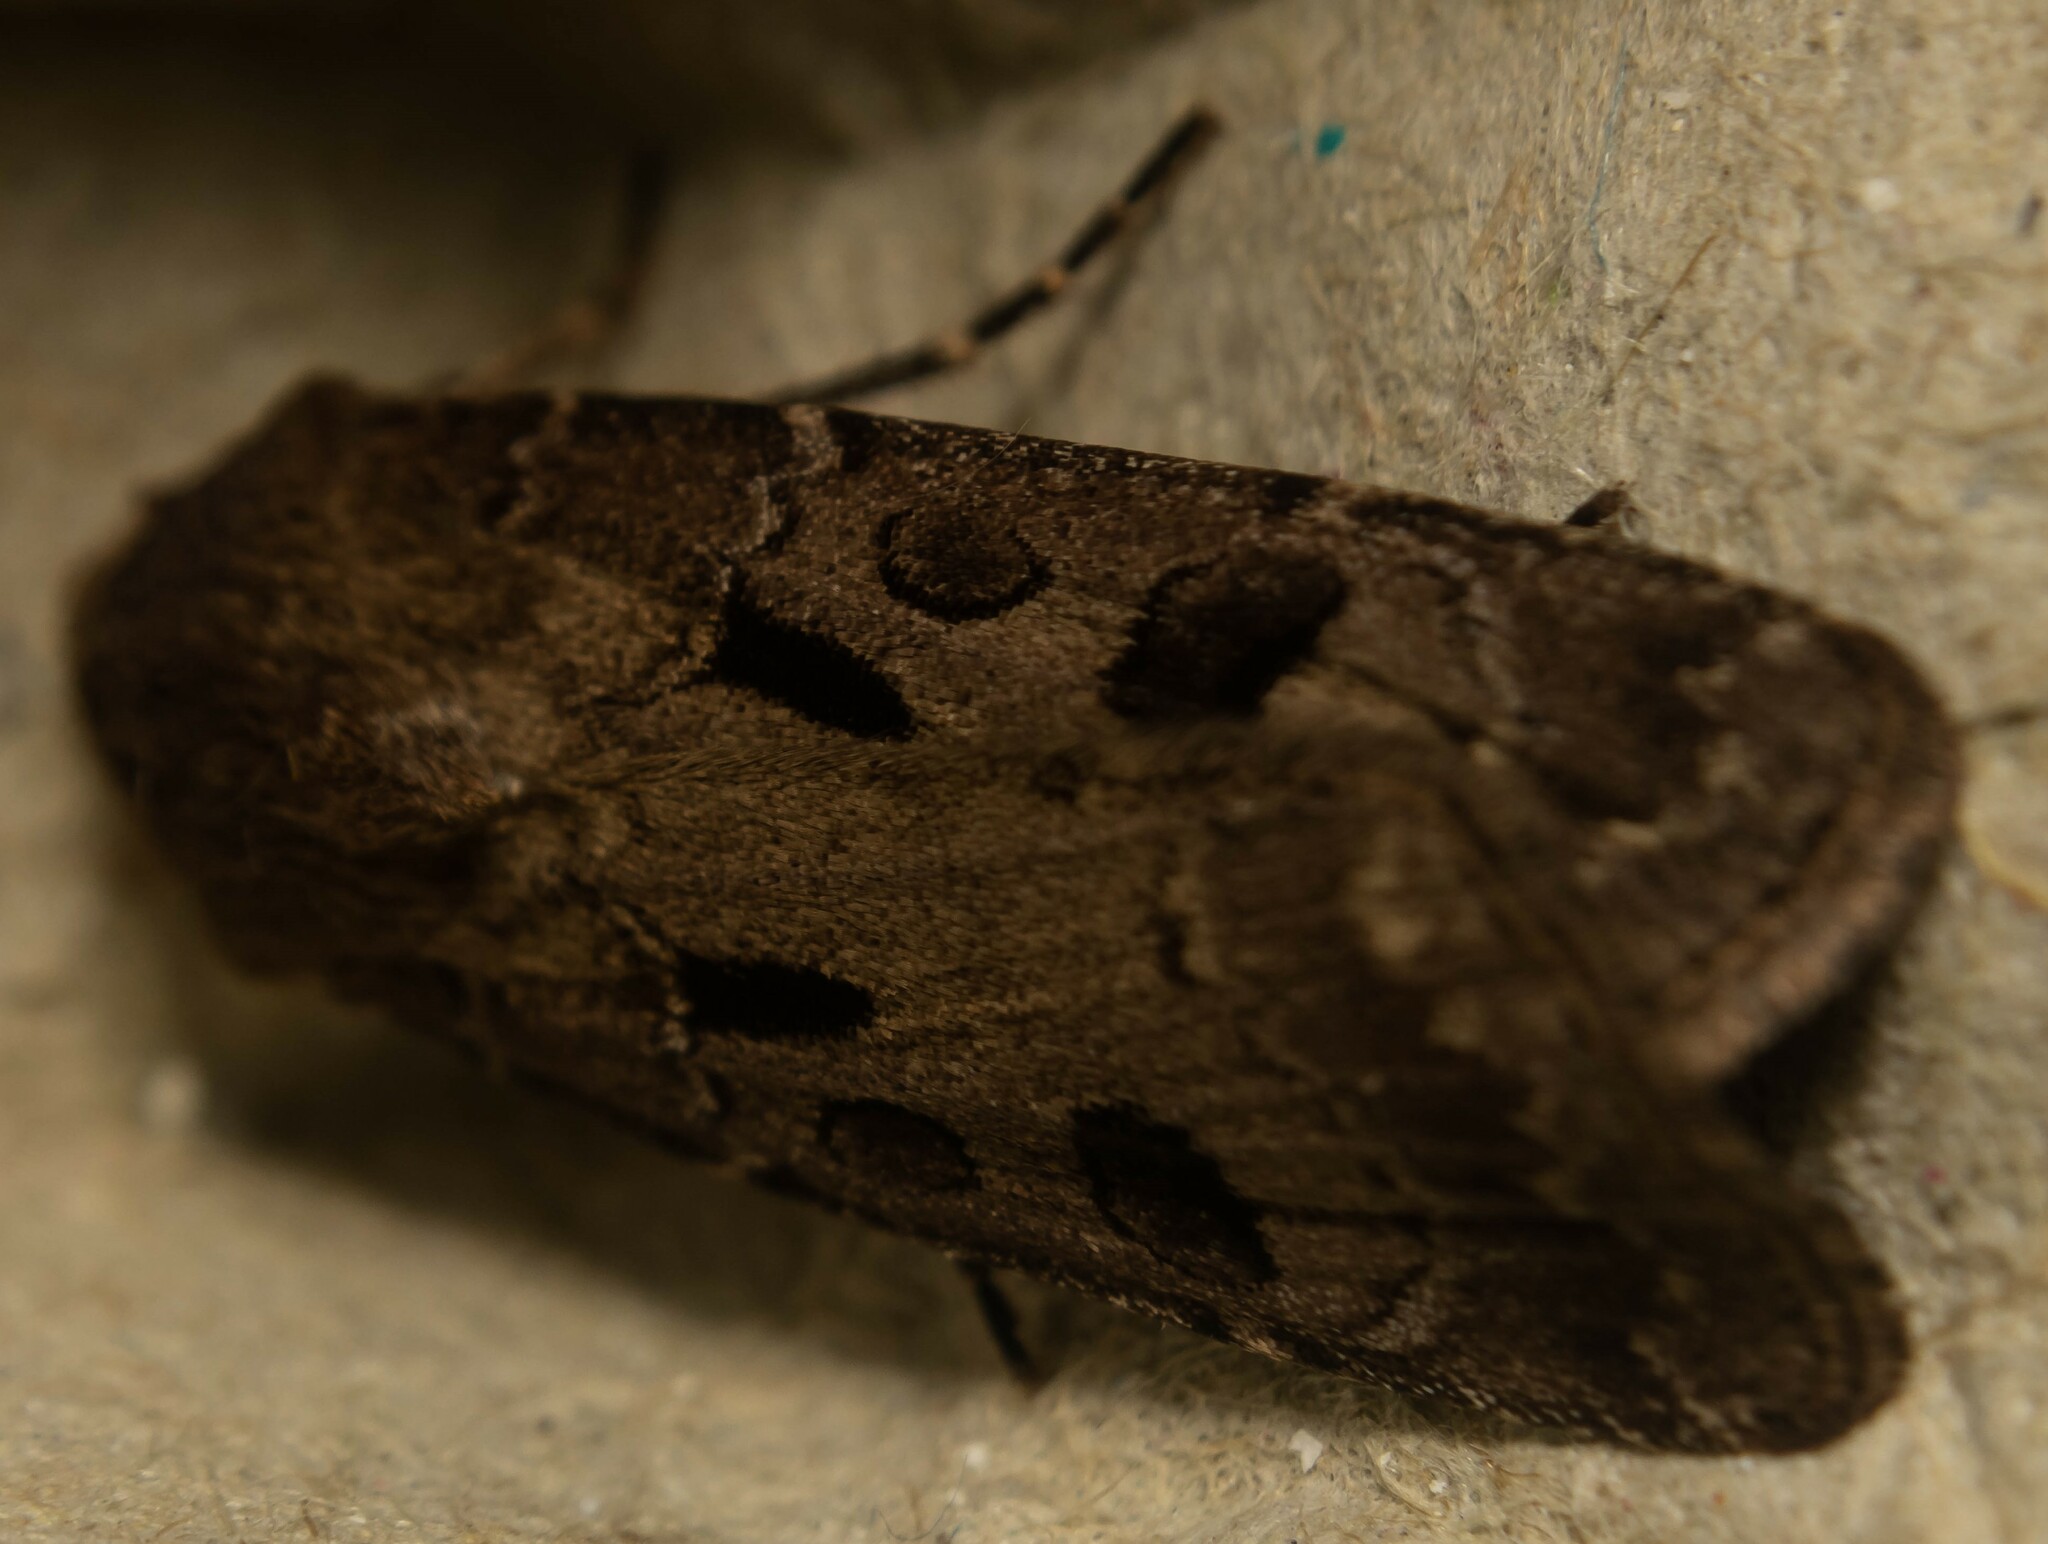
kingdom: Animalia
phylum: Arthropoda
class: Insecta
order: Lepidoptera
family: Noctuidae
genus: Agrotis
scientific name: Agrotis exclamationis
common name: Heart and dart
